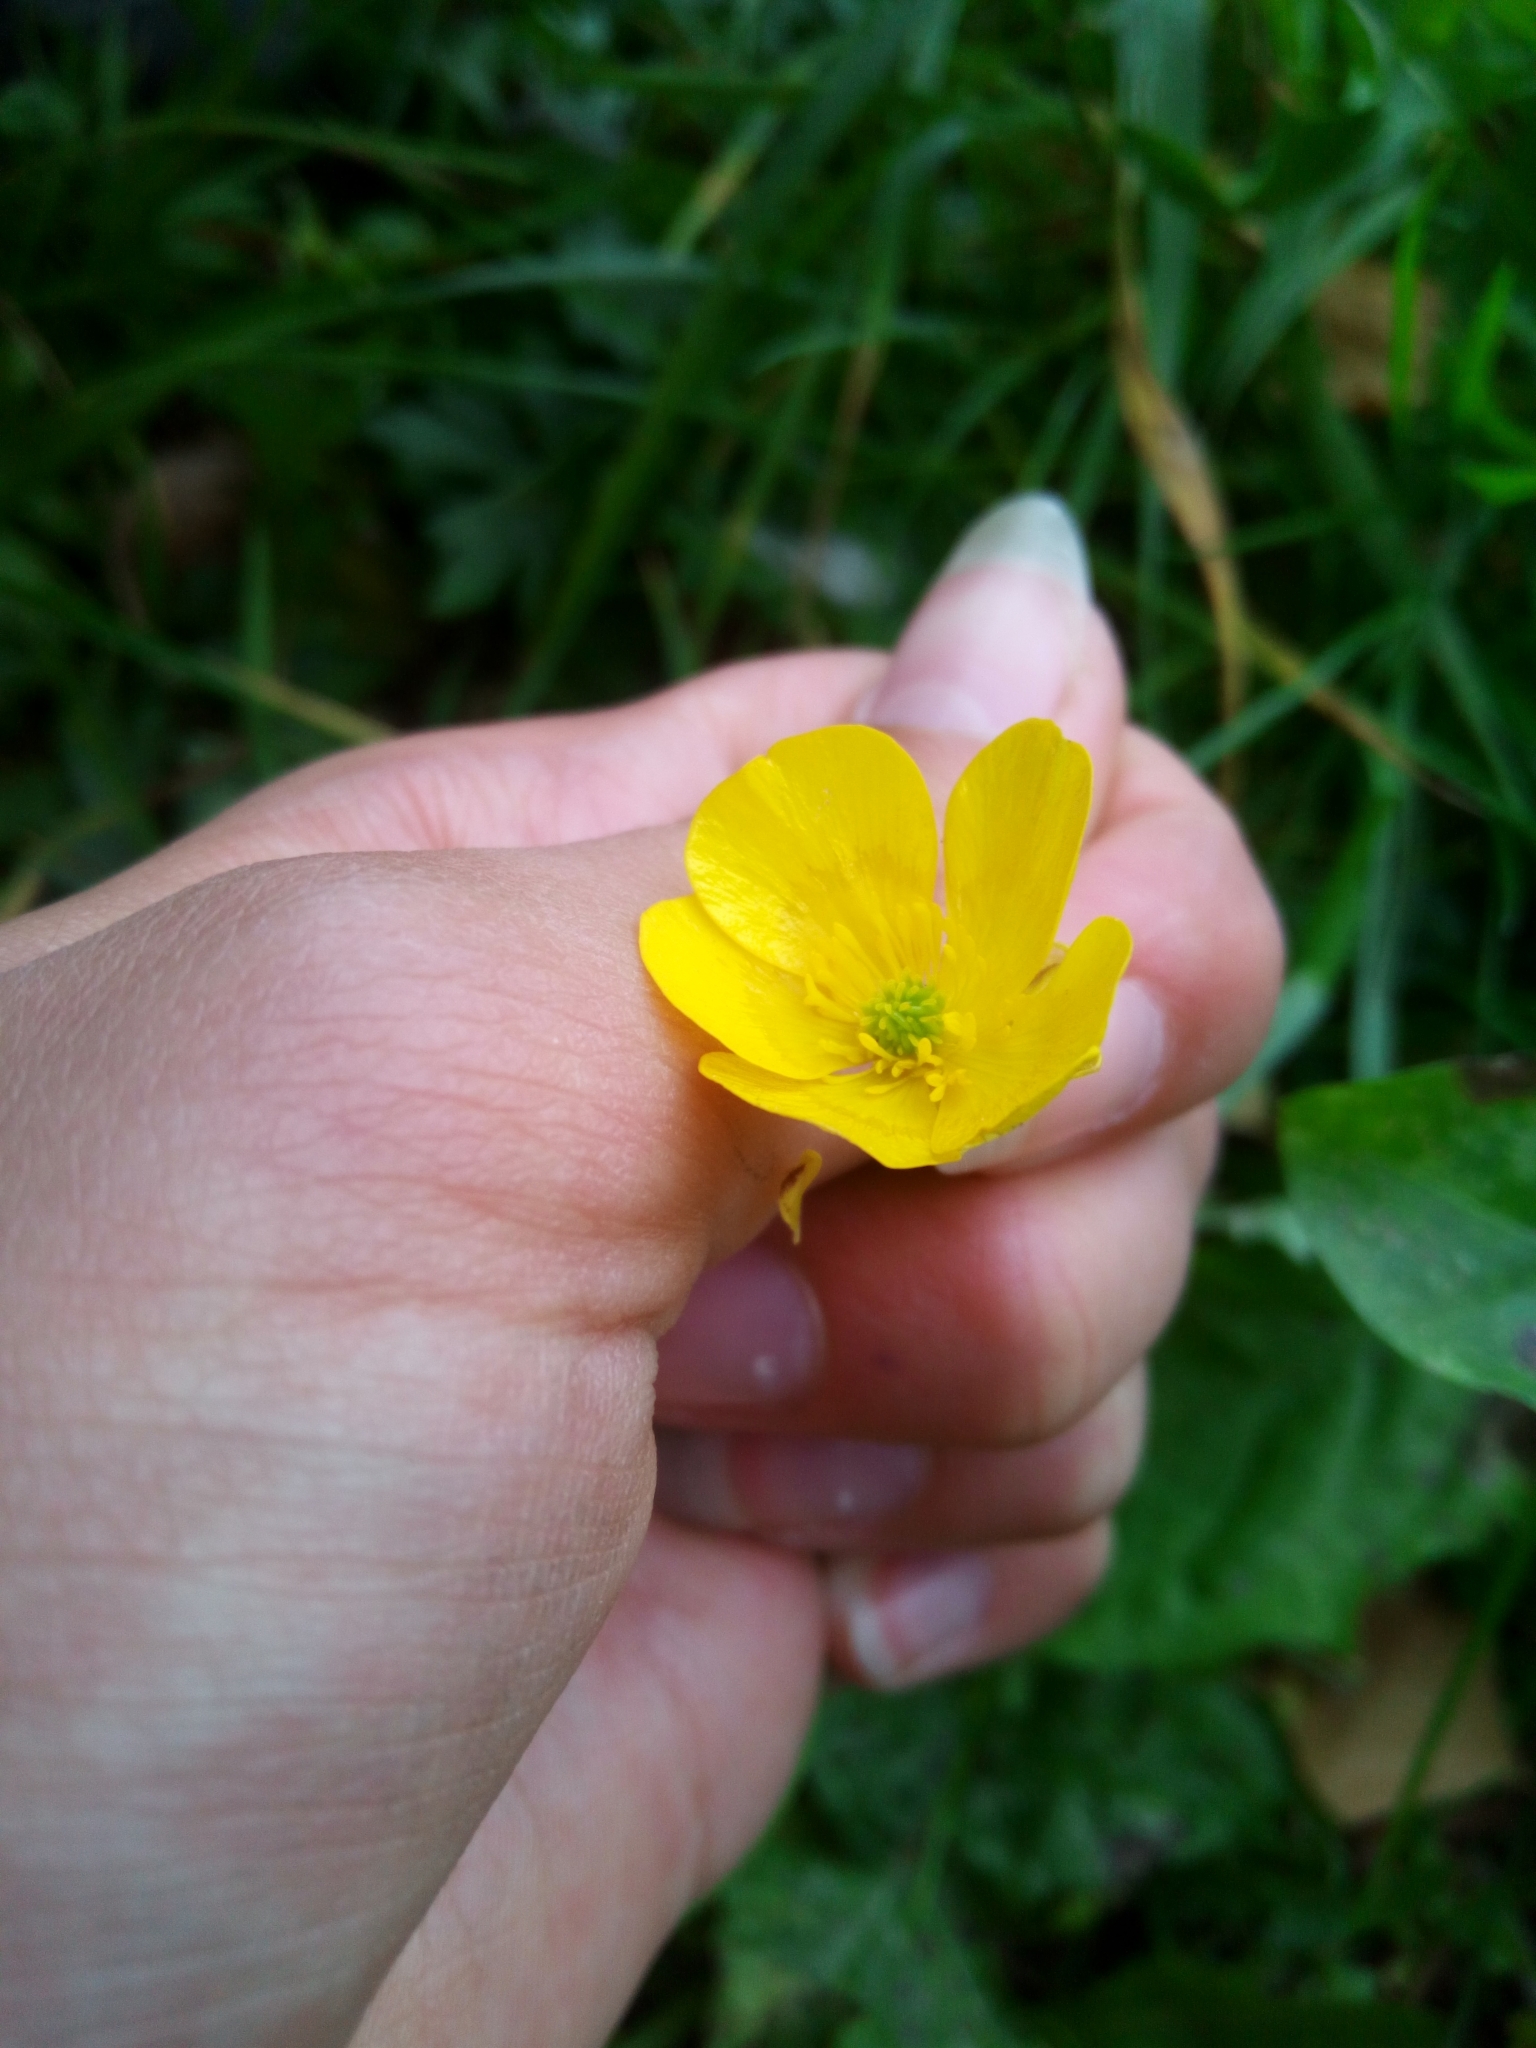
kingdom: Plantae
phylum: Tracheophyta
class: Magnoliopsida
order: Ranunculales
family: Ranunculaceae
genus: Ranunculus
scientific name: Ranunculus acris
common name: Meadow buttercup
